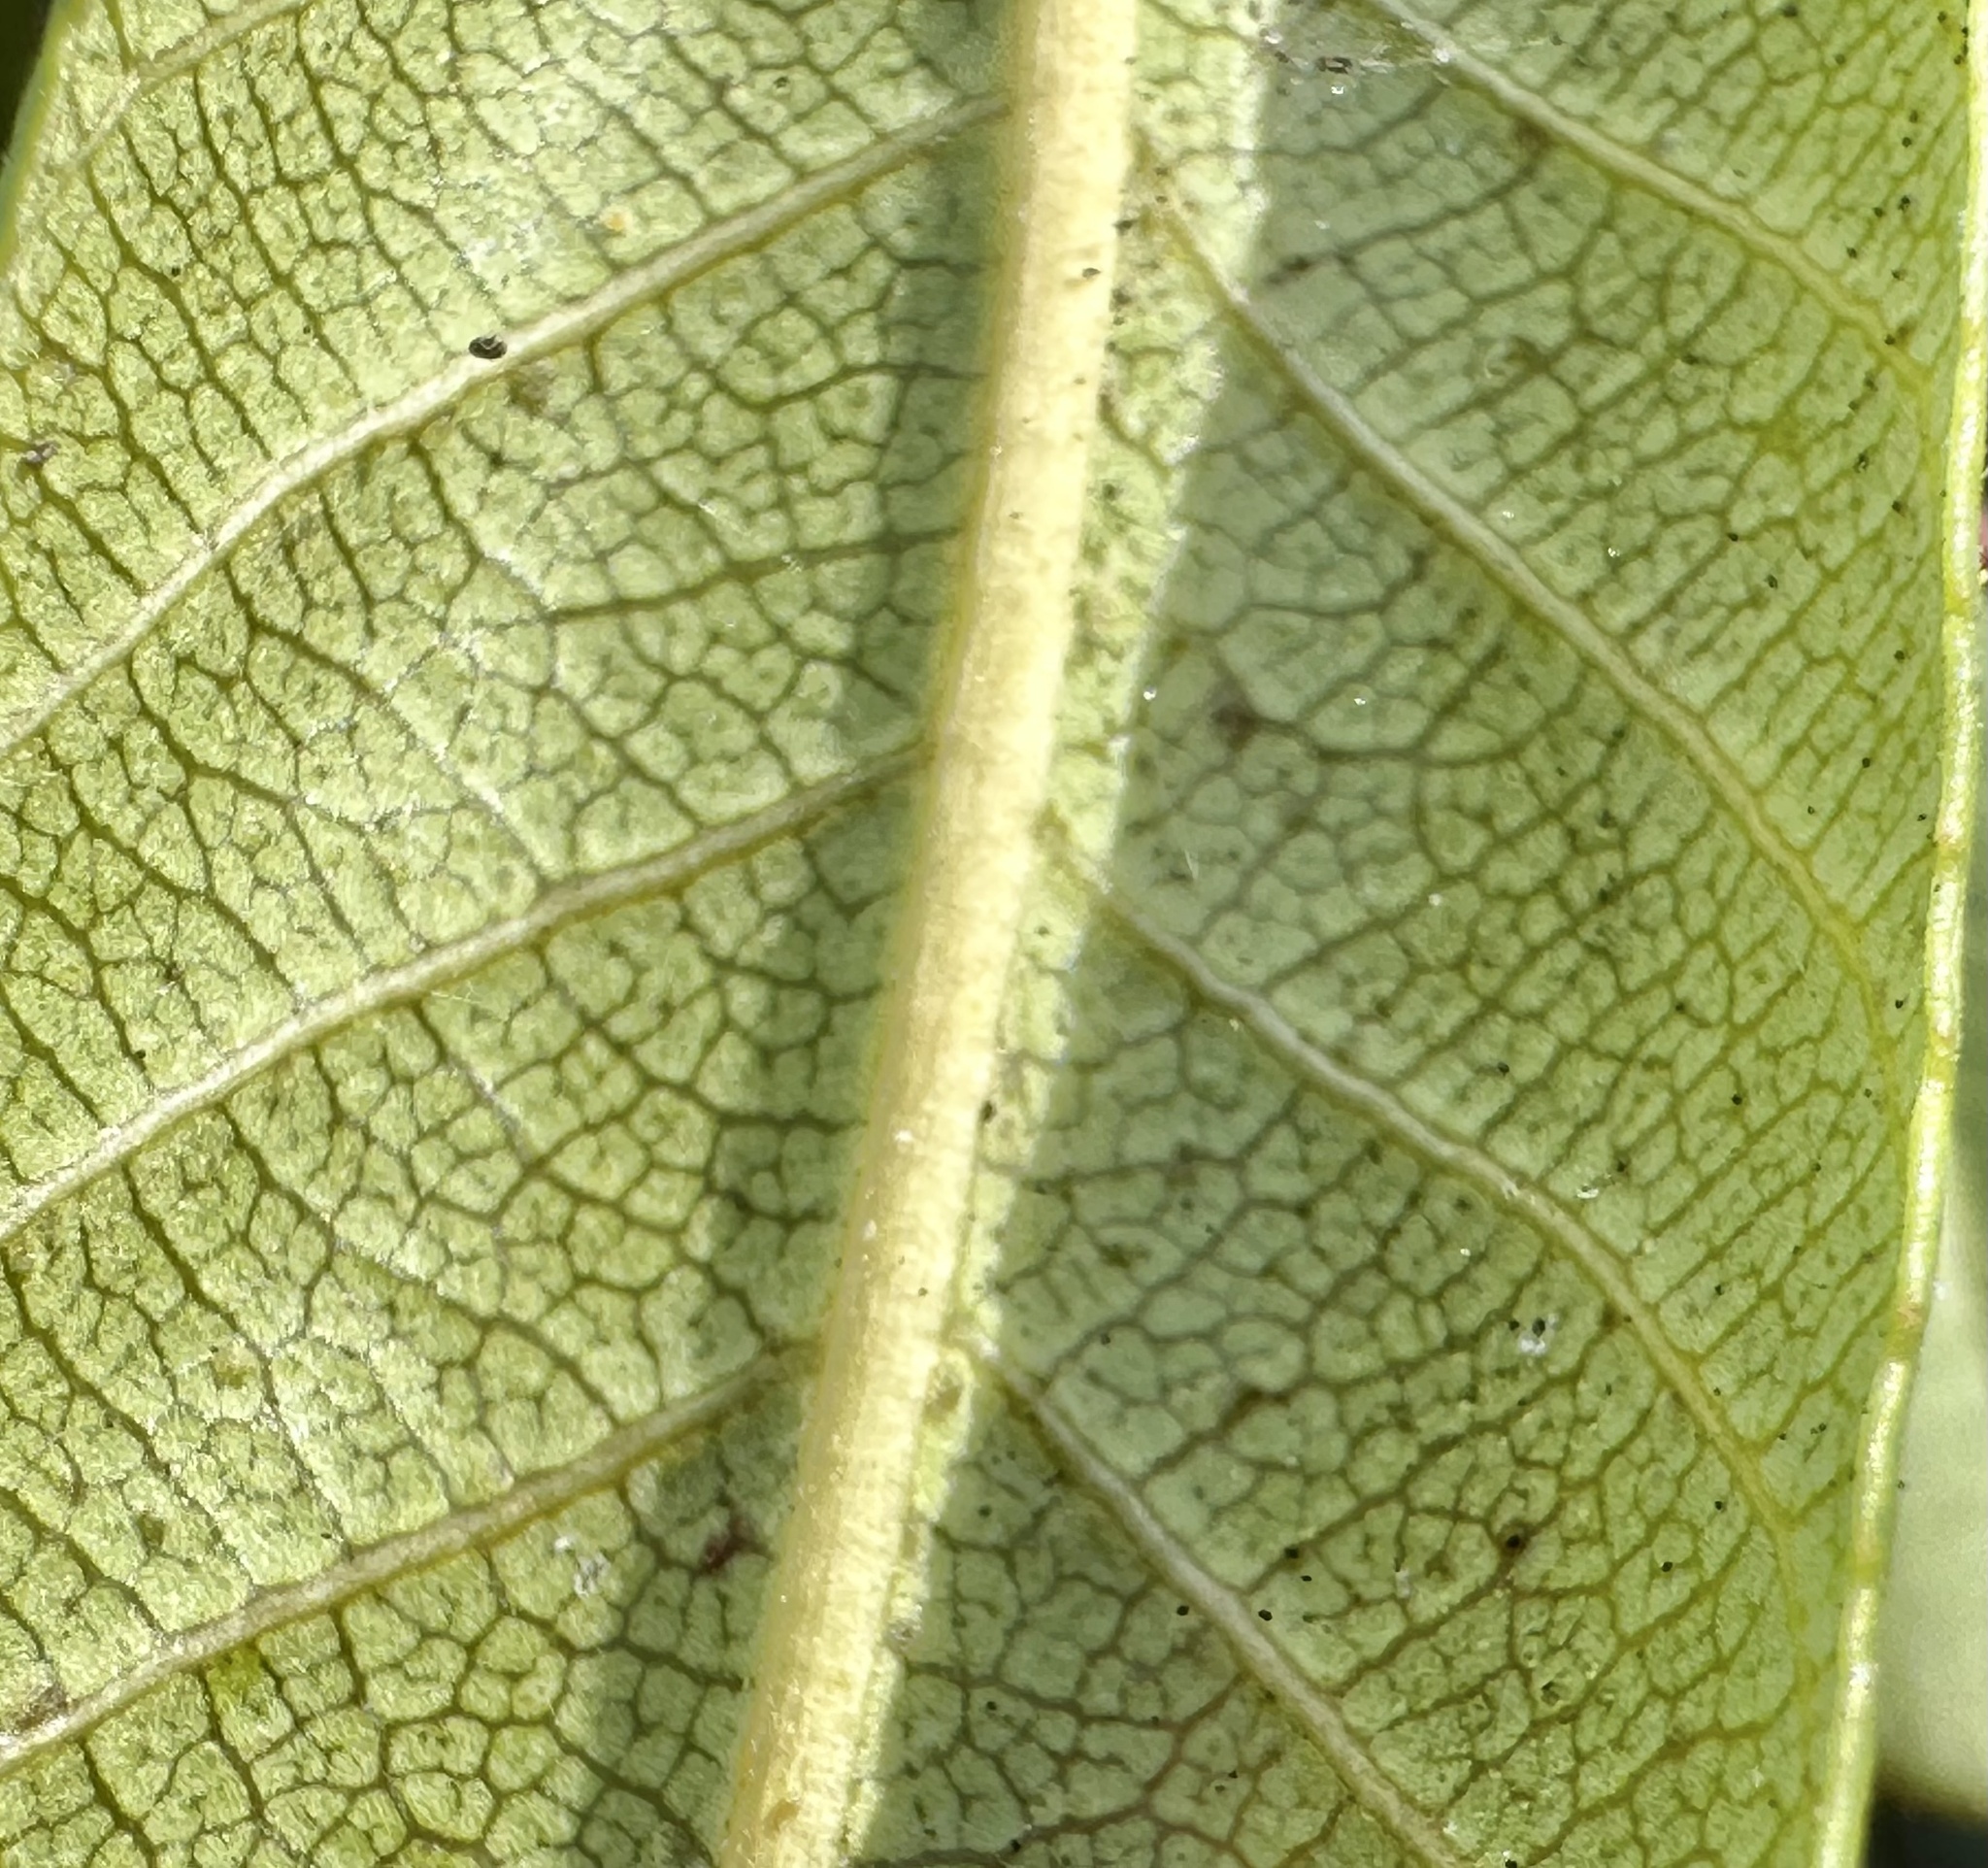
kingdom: Plantae
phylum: Tracheophyta
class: Magnoliopsida
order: Rosales
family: Rhamnaceae
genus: Frangula
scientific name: Frangula californica
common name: California buckthorn
